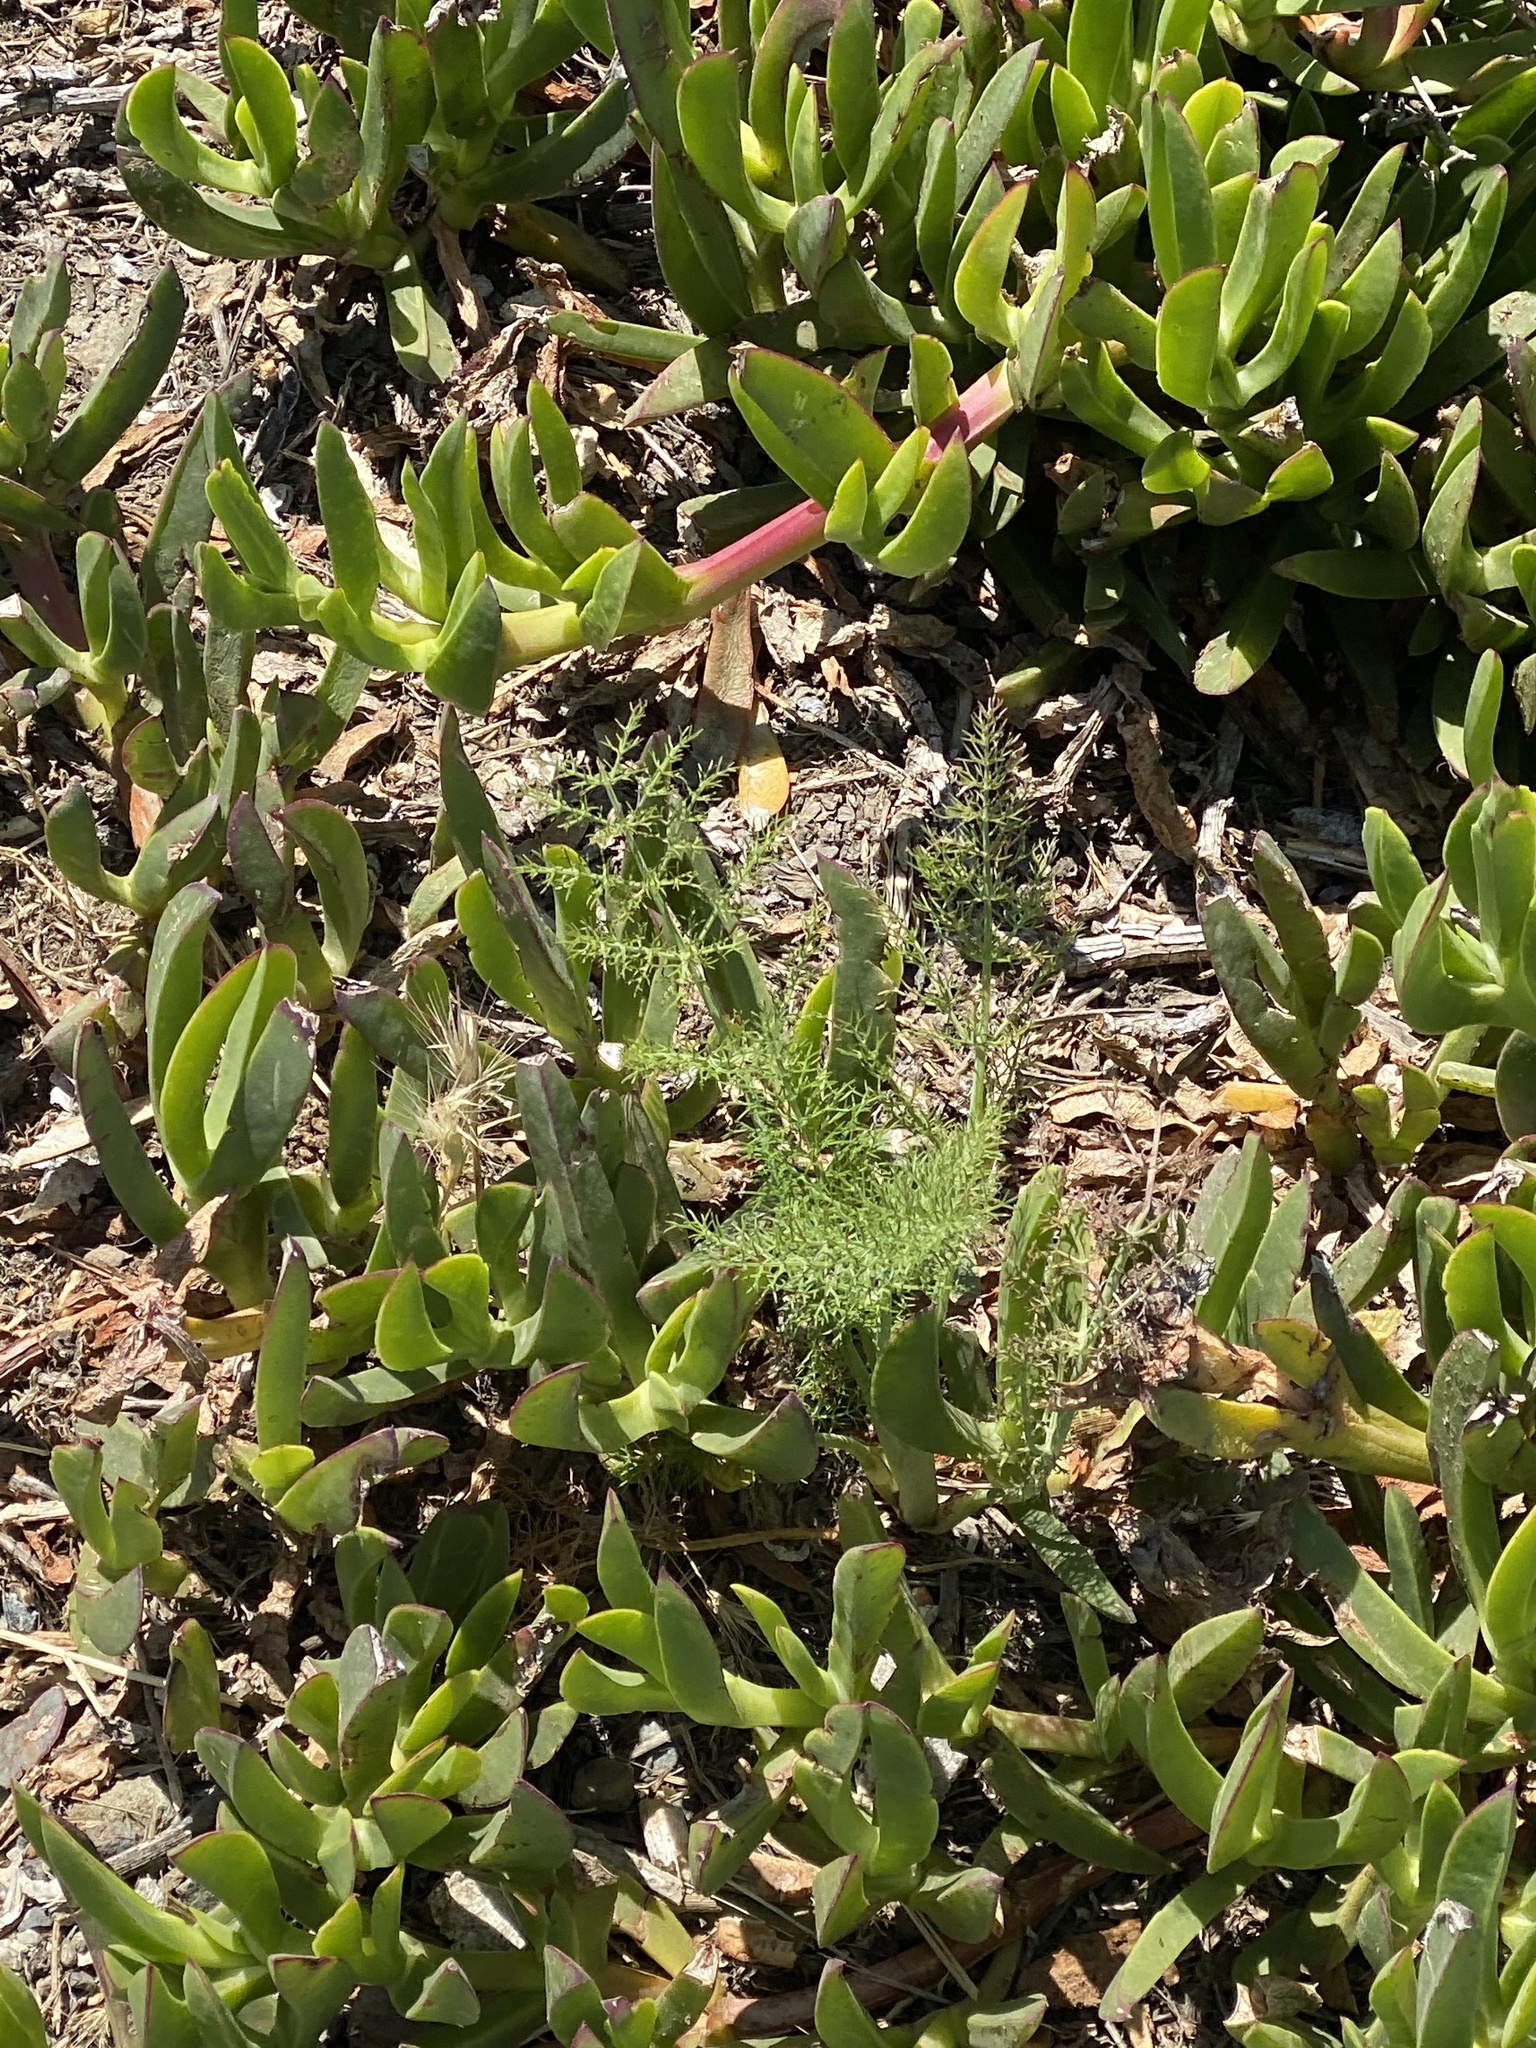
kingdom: Plantae
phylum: Tracheophyta
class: Magnoliopsida
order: Apiales
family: Apiaceae
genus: Foeniculum
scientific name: Foeniculum vulgare
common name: Fennel
